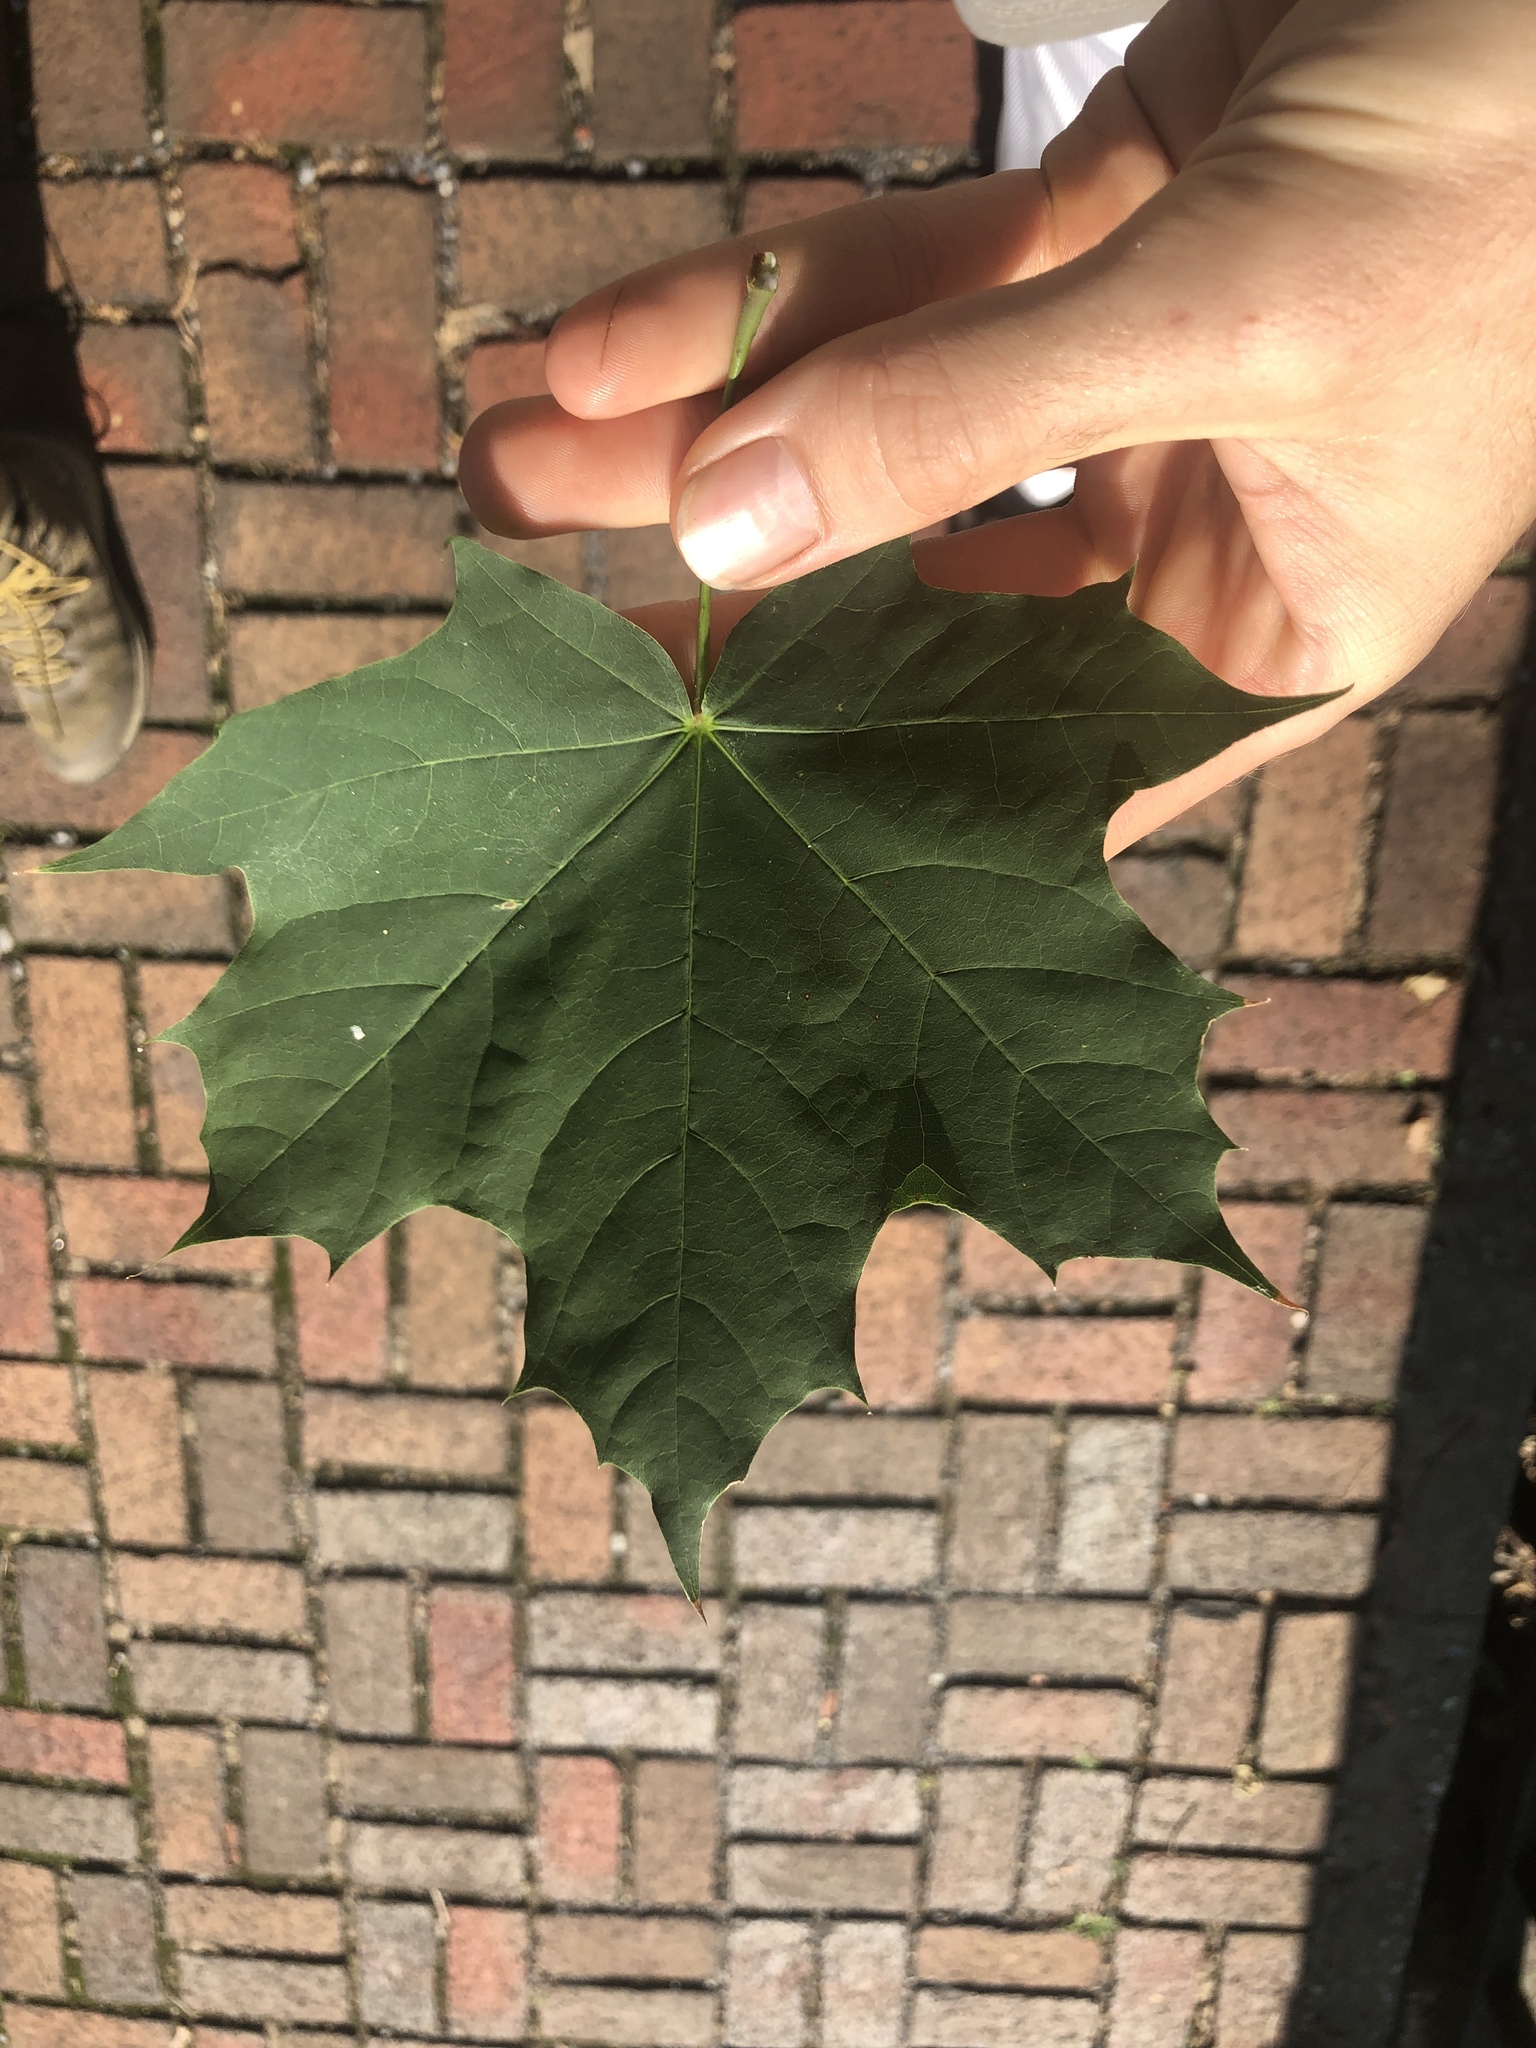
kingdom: Plantae
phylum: Tracheophyta
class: Magnoliopsida
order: Sapindales
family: Sapindaceae
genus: Acer
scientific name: Acer platanoides
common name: Norway maple
